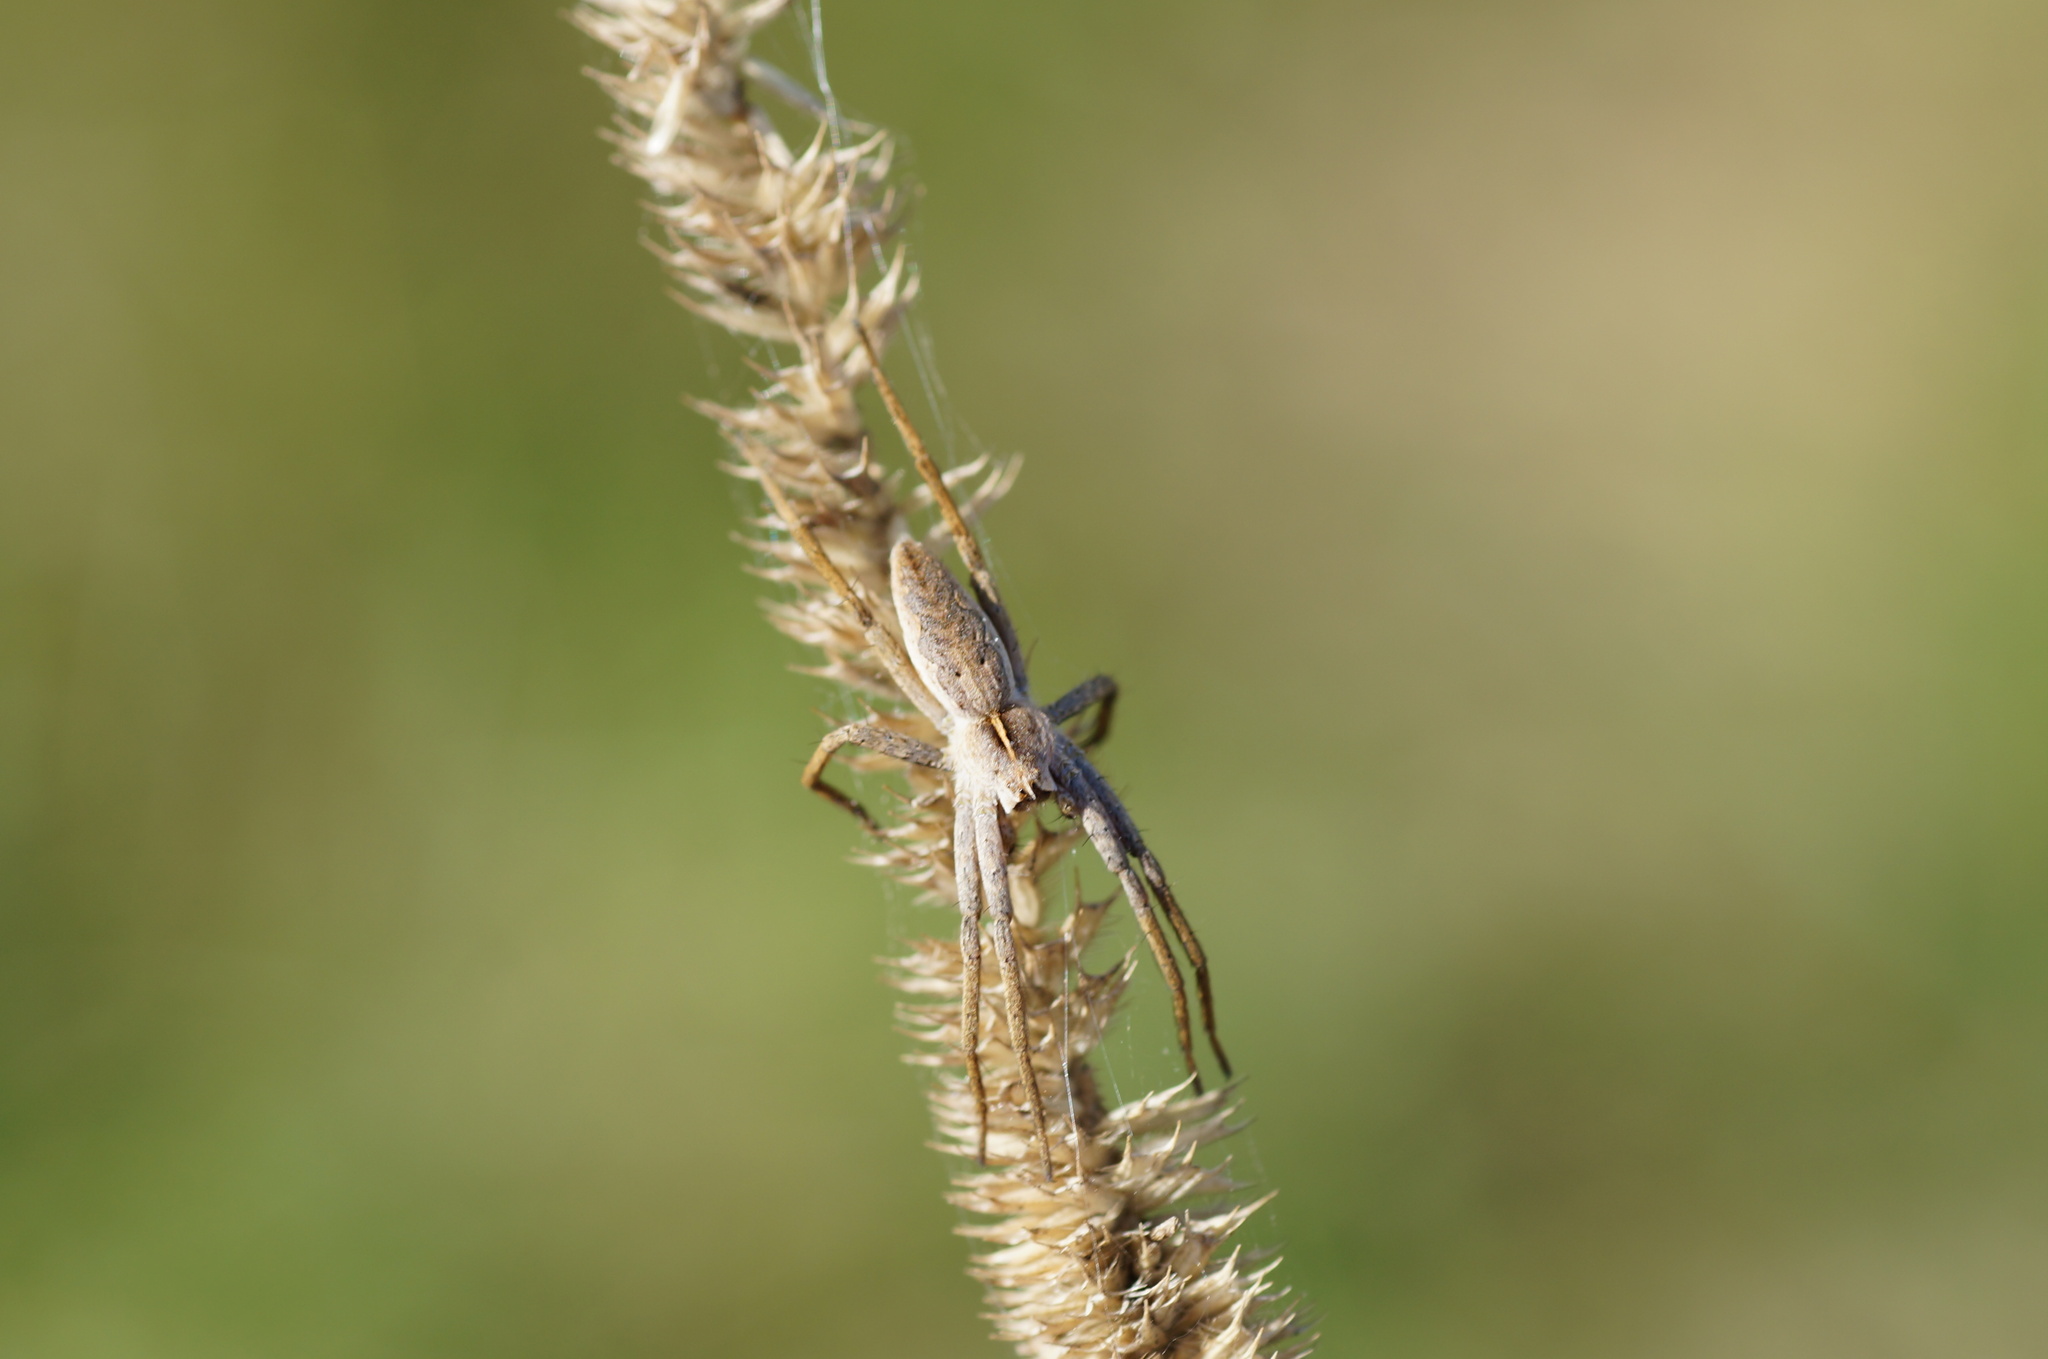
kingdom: Animalia
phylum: Arthropoda
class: Arachnida
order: Araneae
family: Pisauridae
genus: Pisaura
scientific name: Pisaura mirabilis
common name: Tent spider
